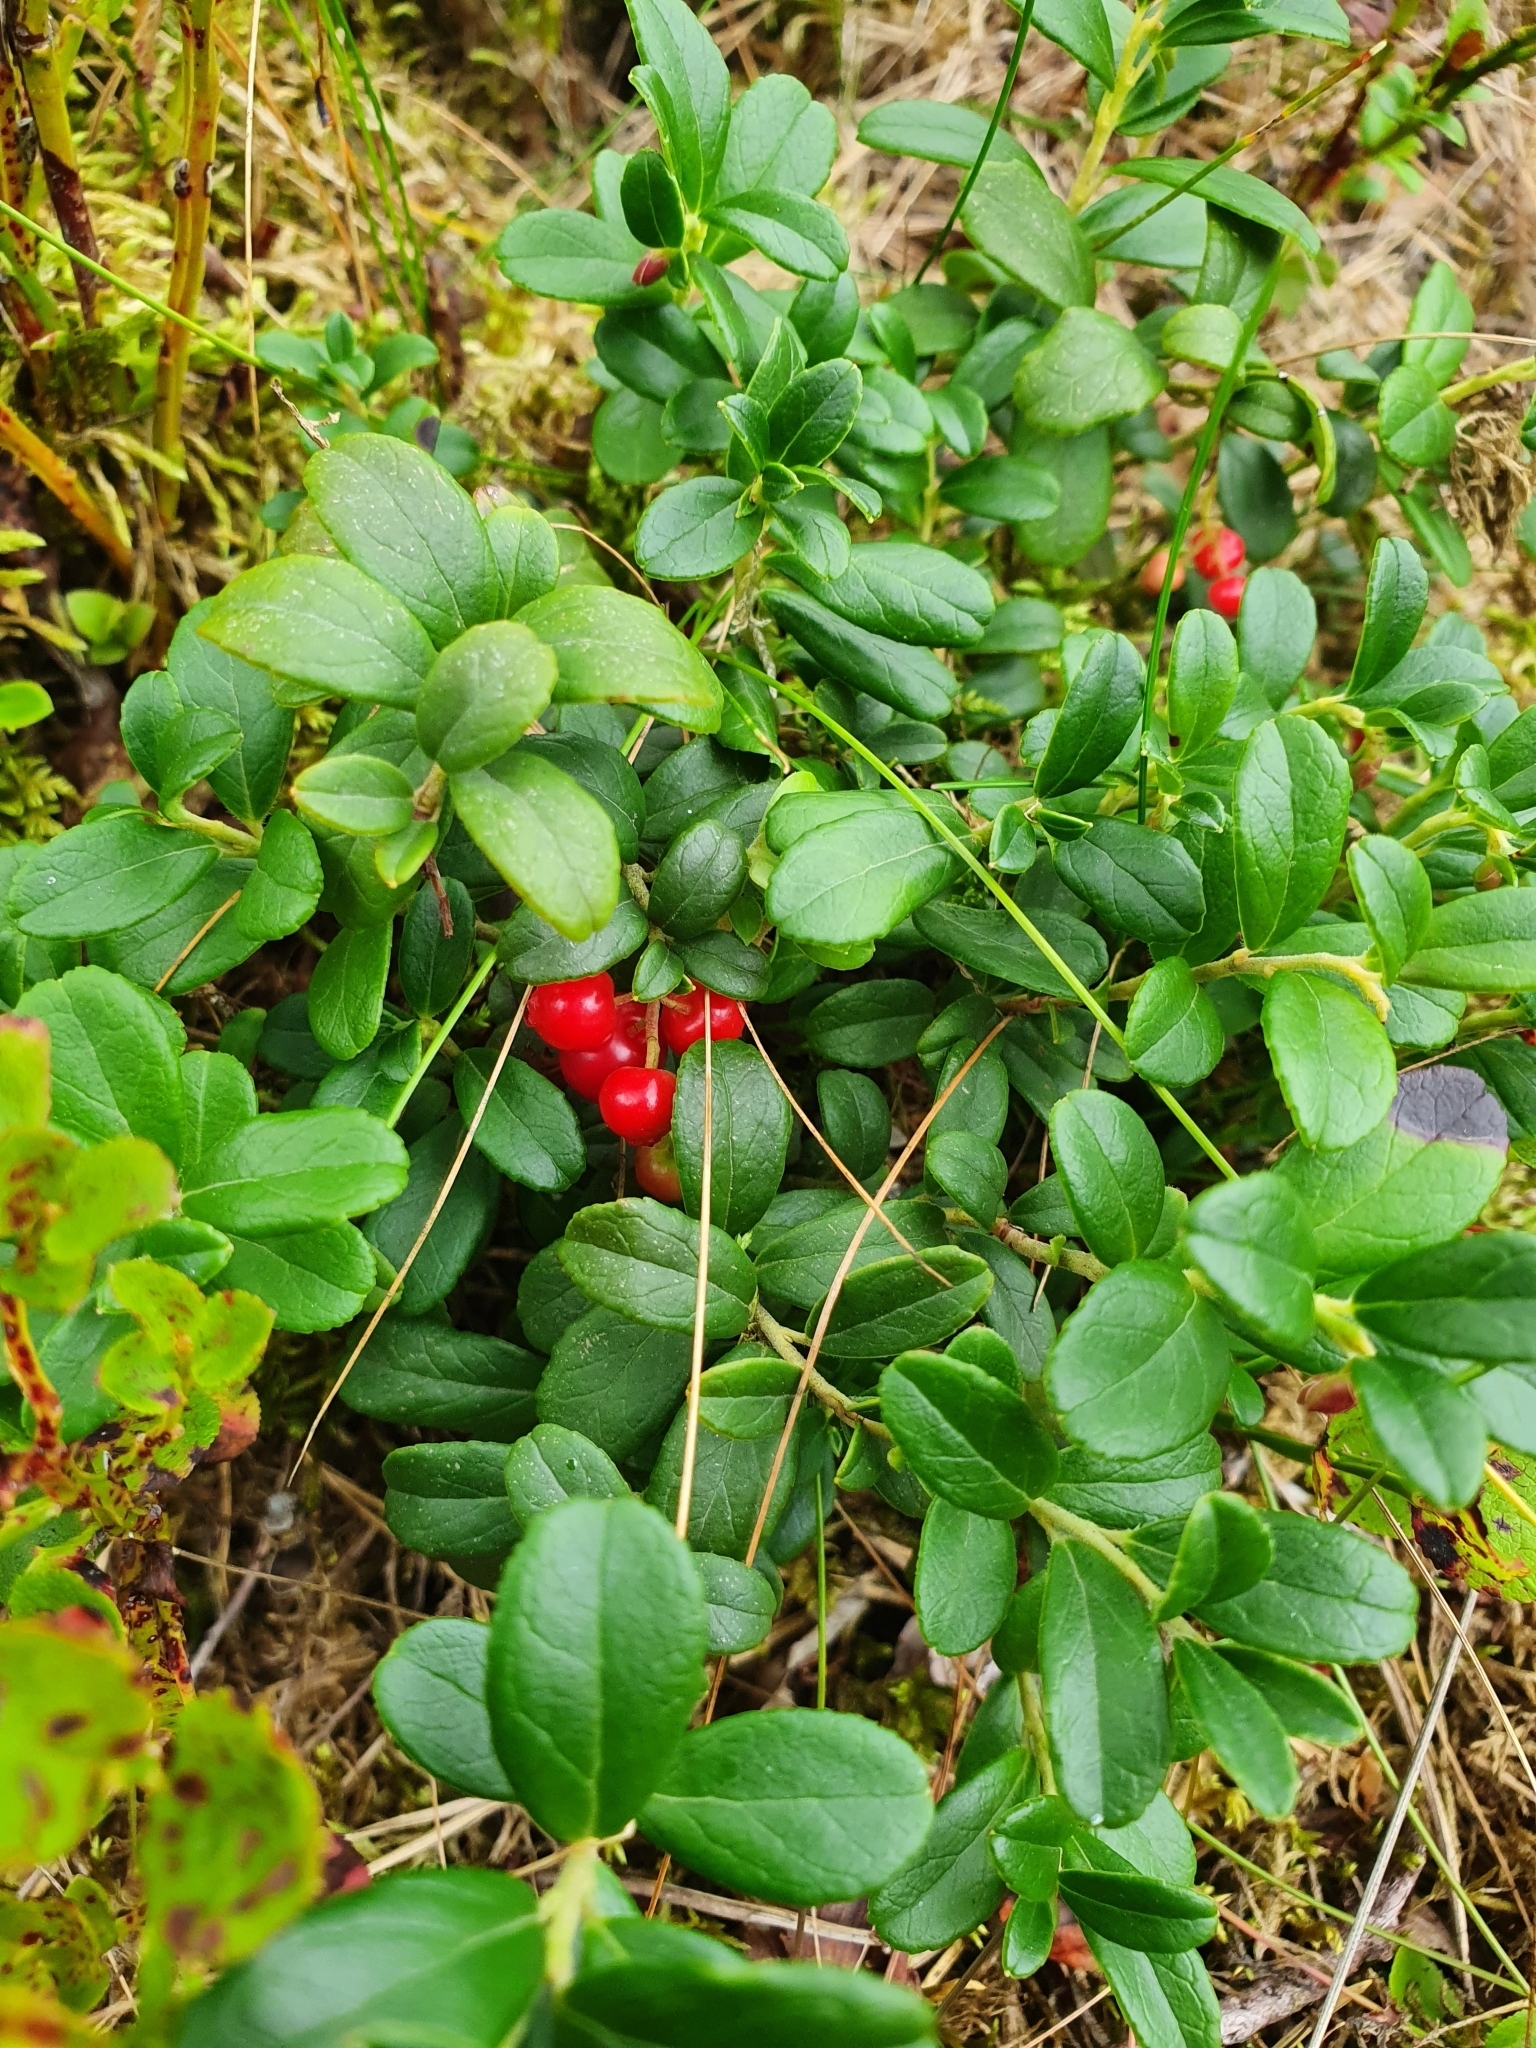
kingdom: Plantae
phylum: Tracheophyta
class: Magnoliopsida
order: Ericales
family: Ericaceae
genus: Vaccinium
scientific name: Vaccinium vitis-idaea
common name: Cowberry
